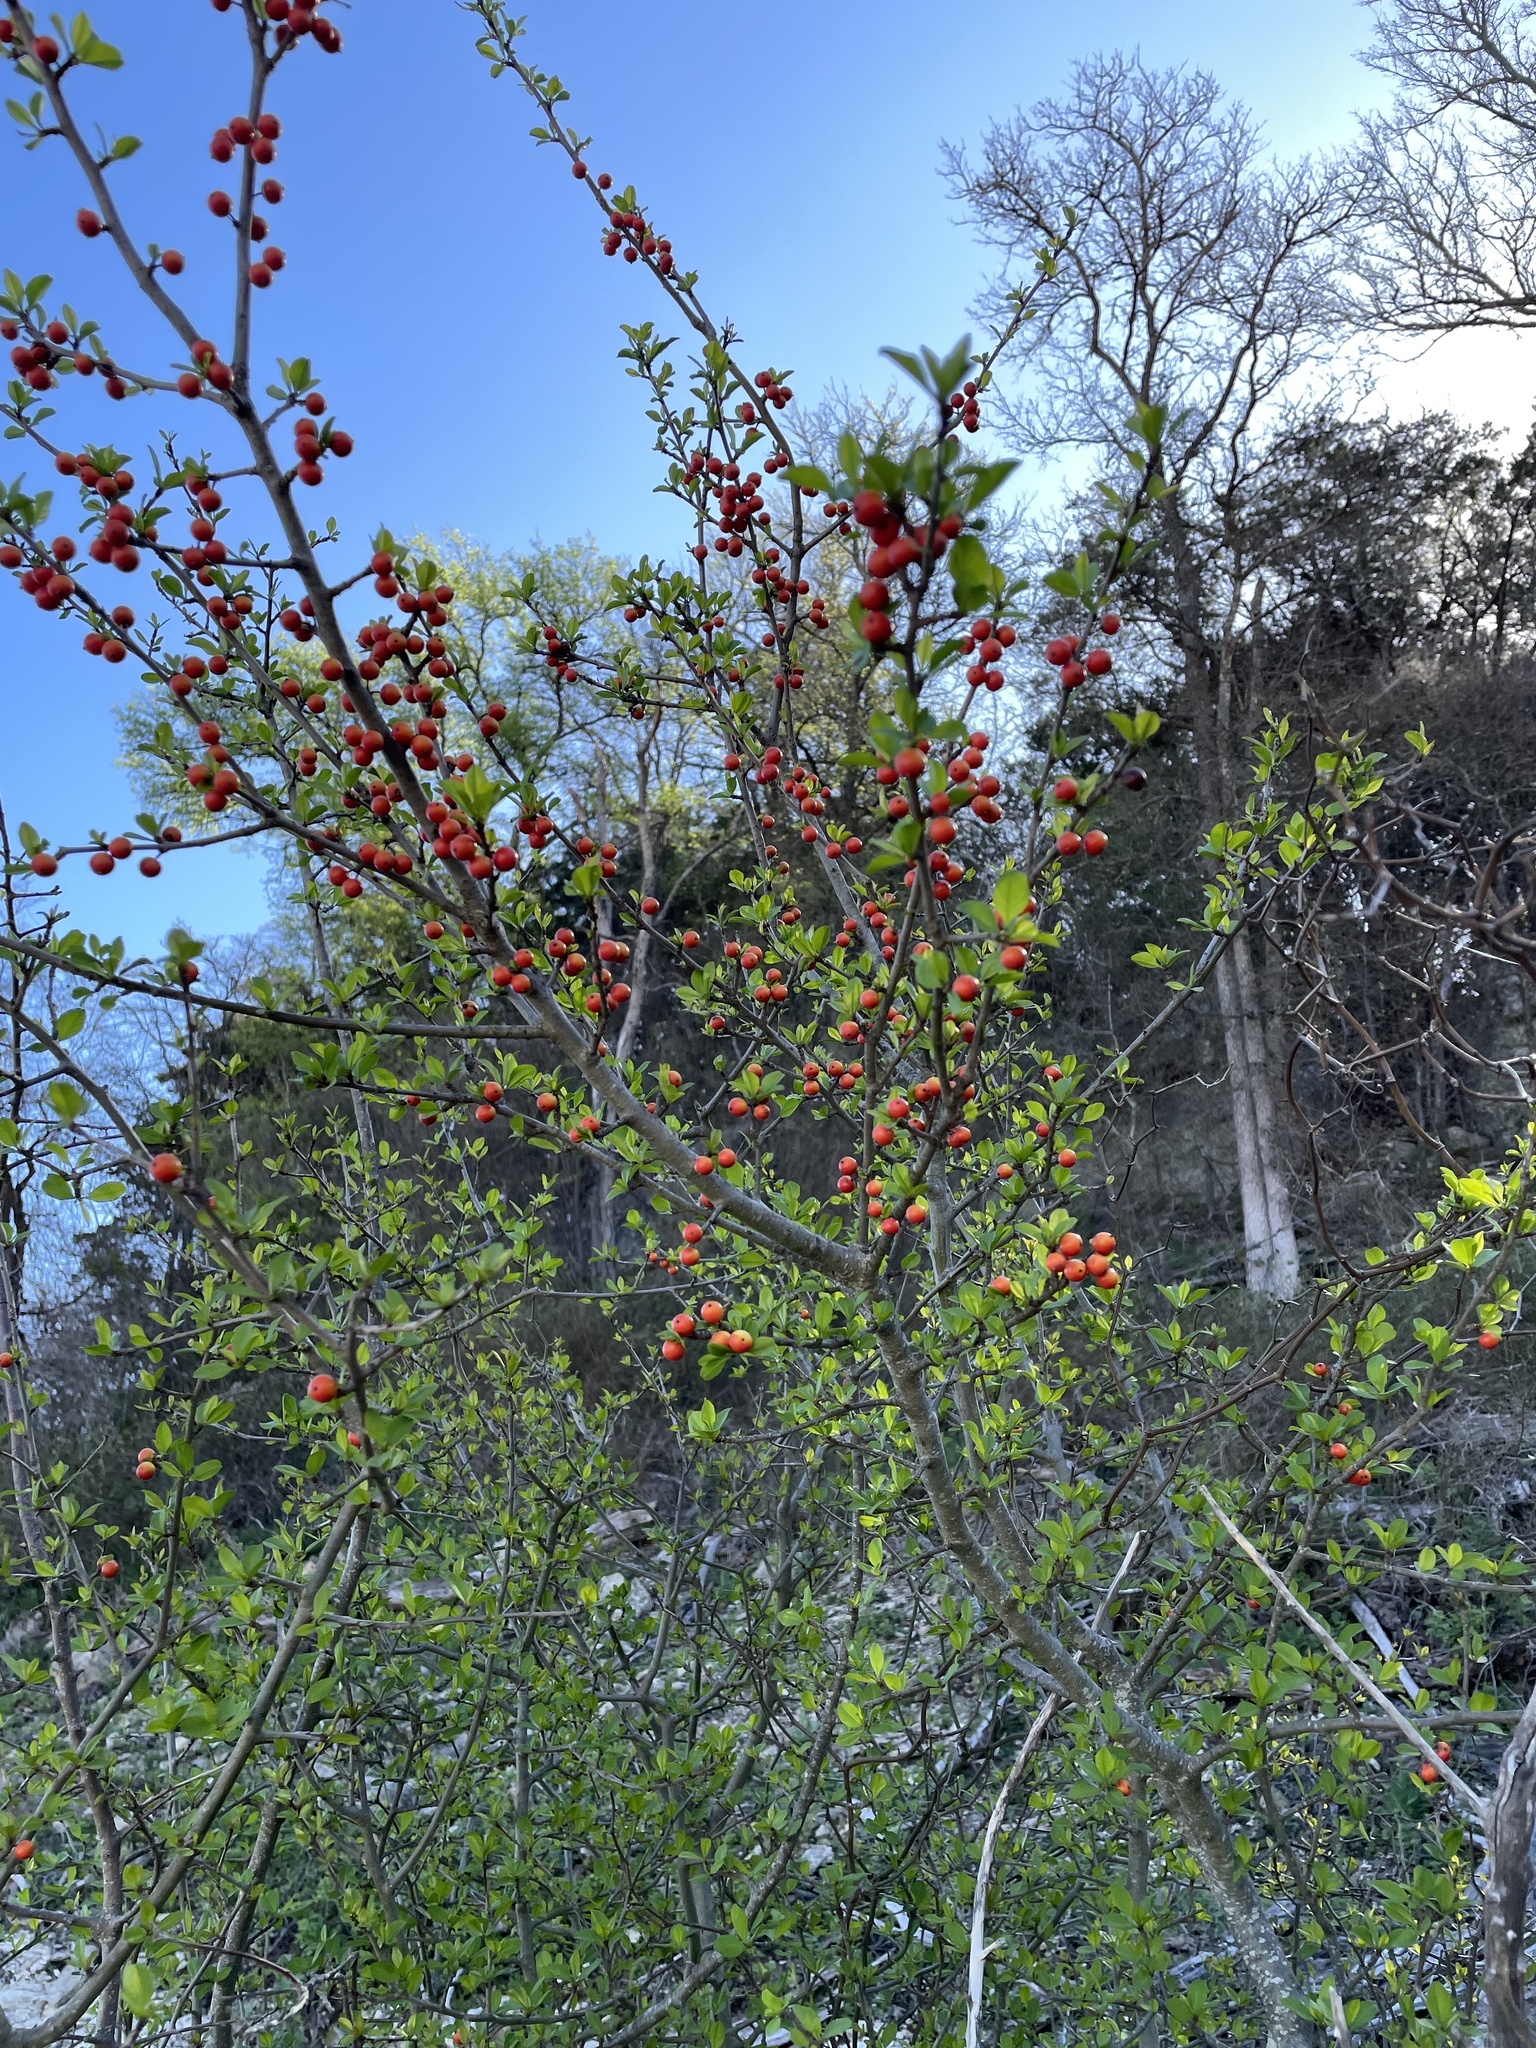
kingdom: Plantae
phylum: Tracheophyta
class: Magnoliopsida
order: Aquifoliales
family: Aquifoliaceae
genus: Ilex
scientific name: Ilex decidua
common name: Possum-haw
